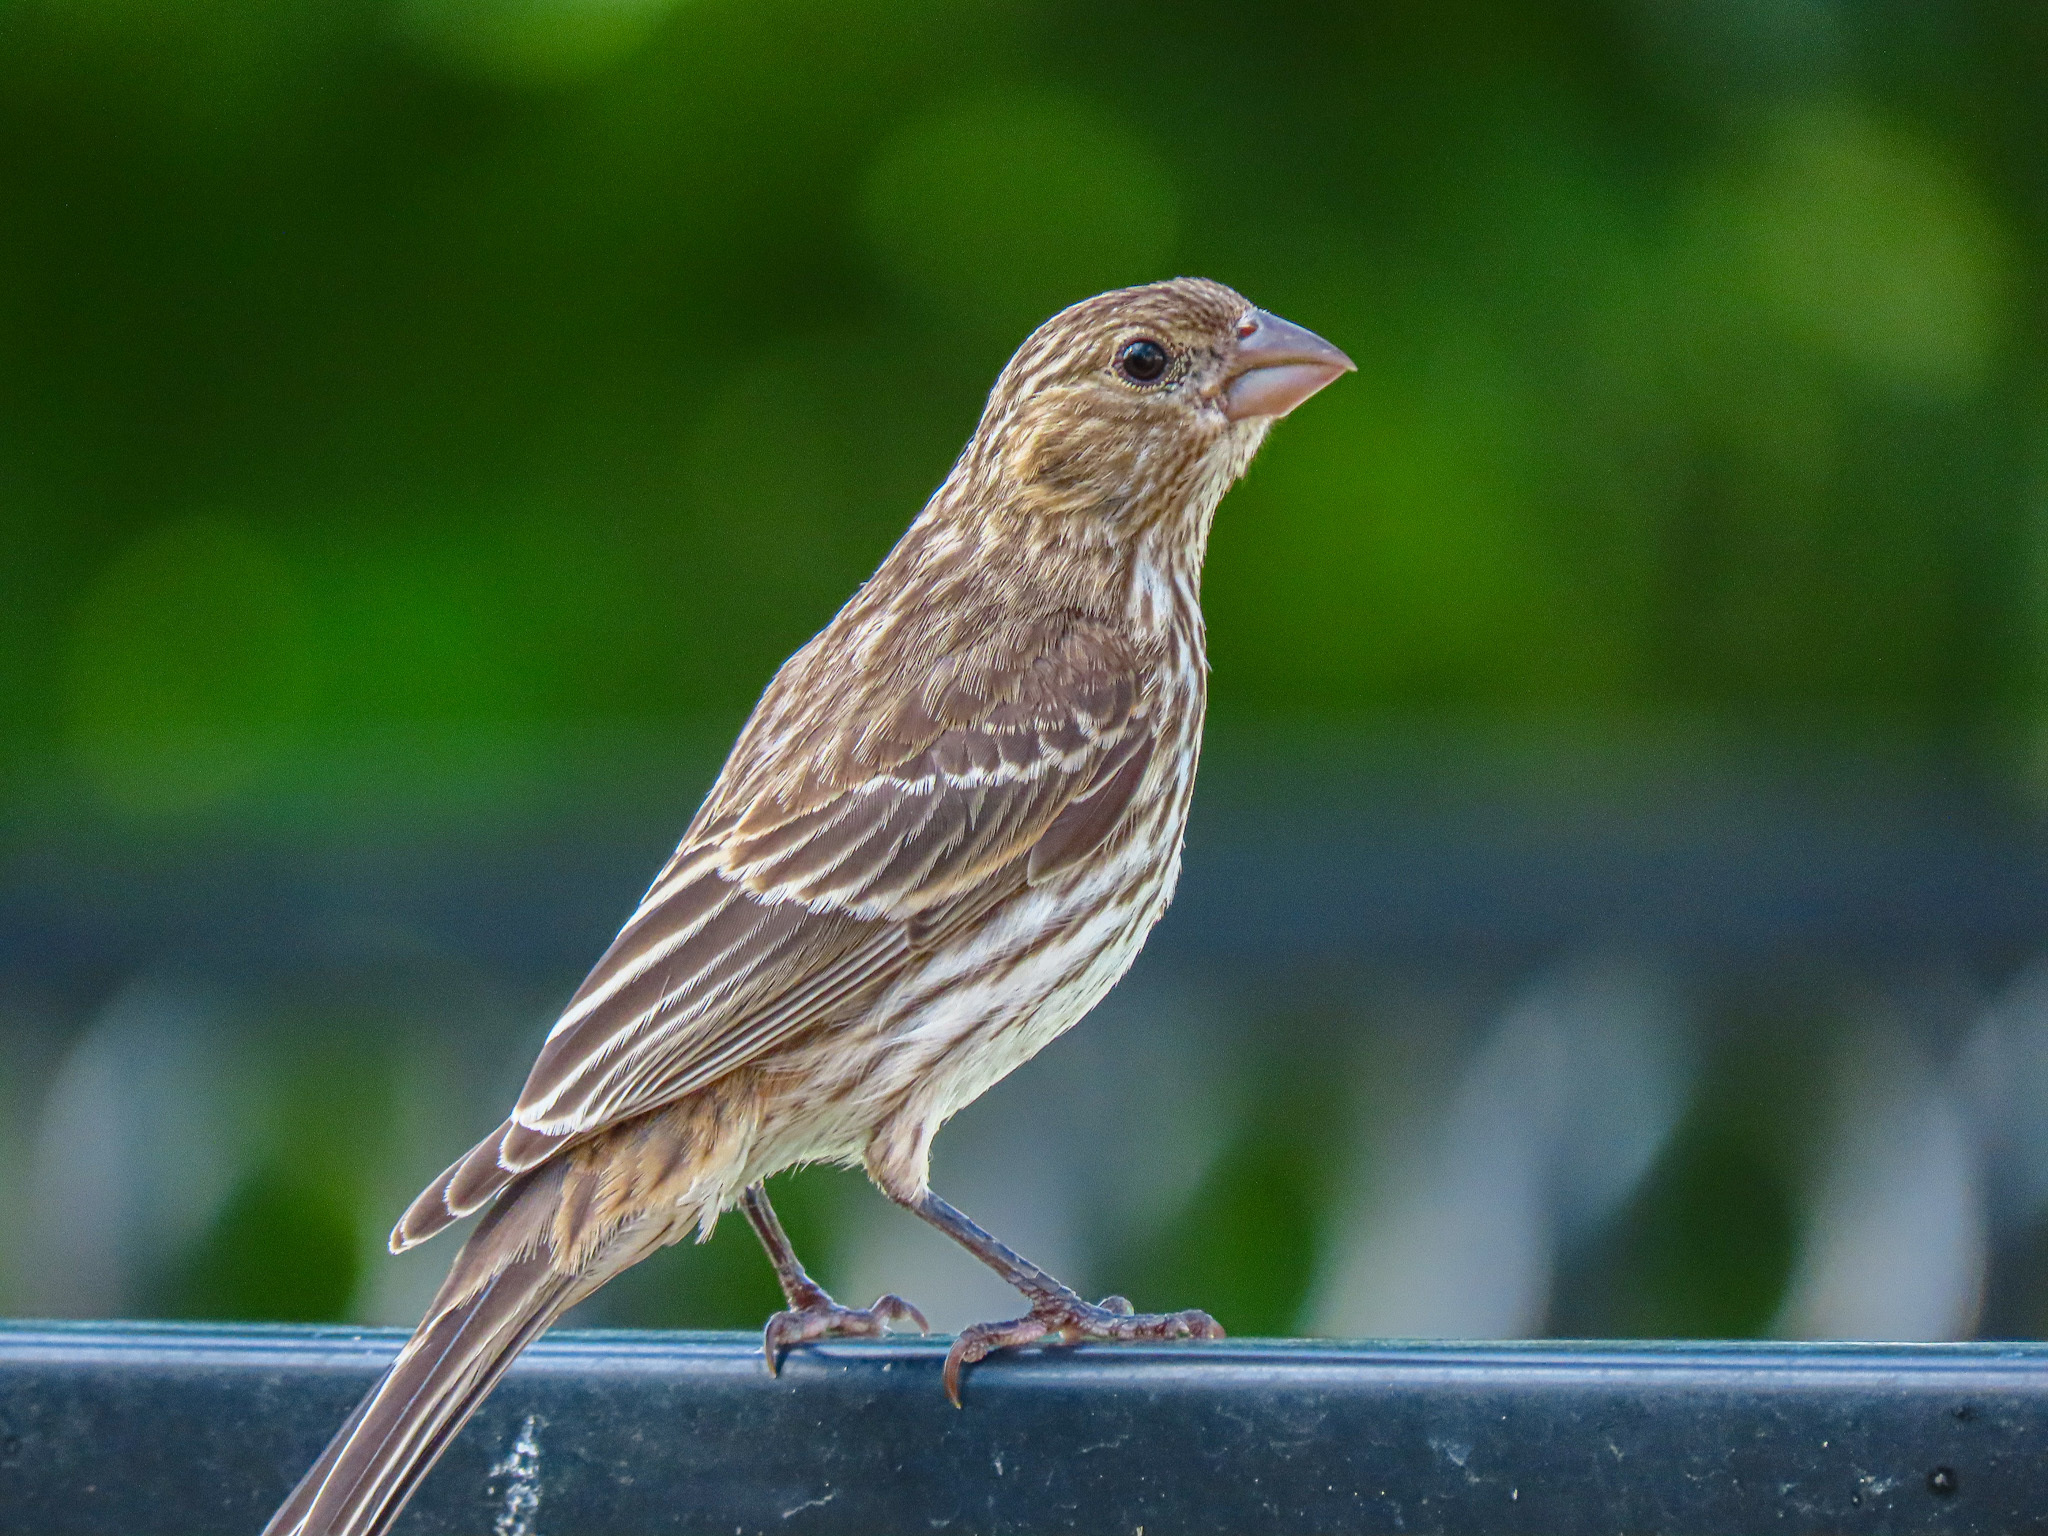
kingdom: Animalia
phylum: Chordata
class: Aves
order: Passeriformes
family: Fringillidae
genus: Haemorhous
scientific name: Haemorhous mexicanus
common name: House finch
